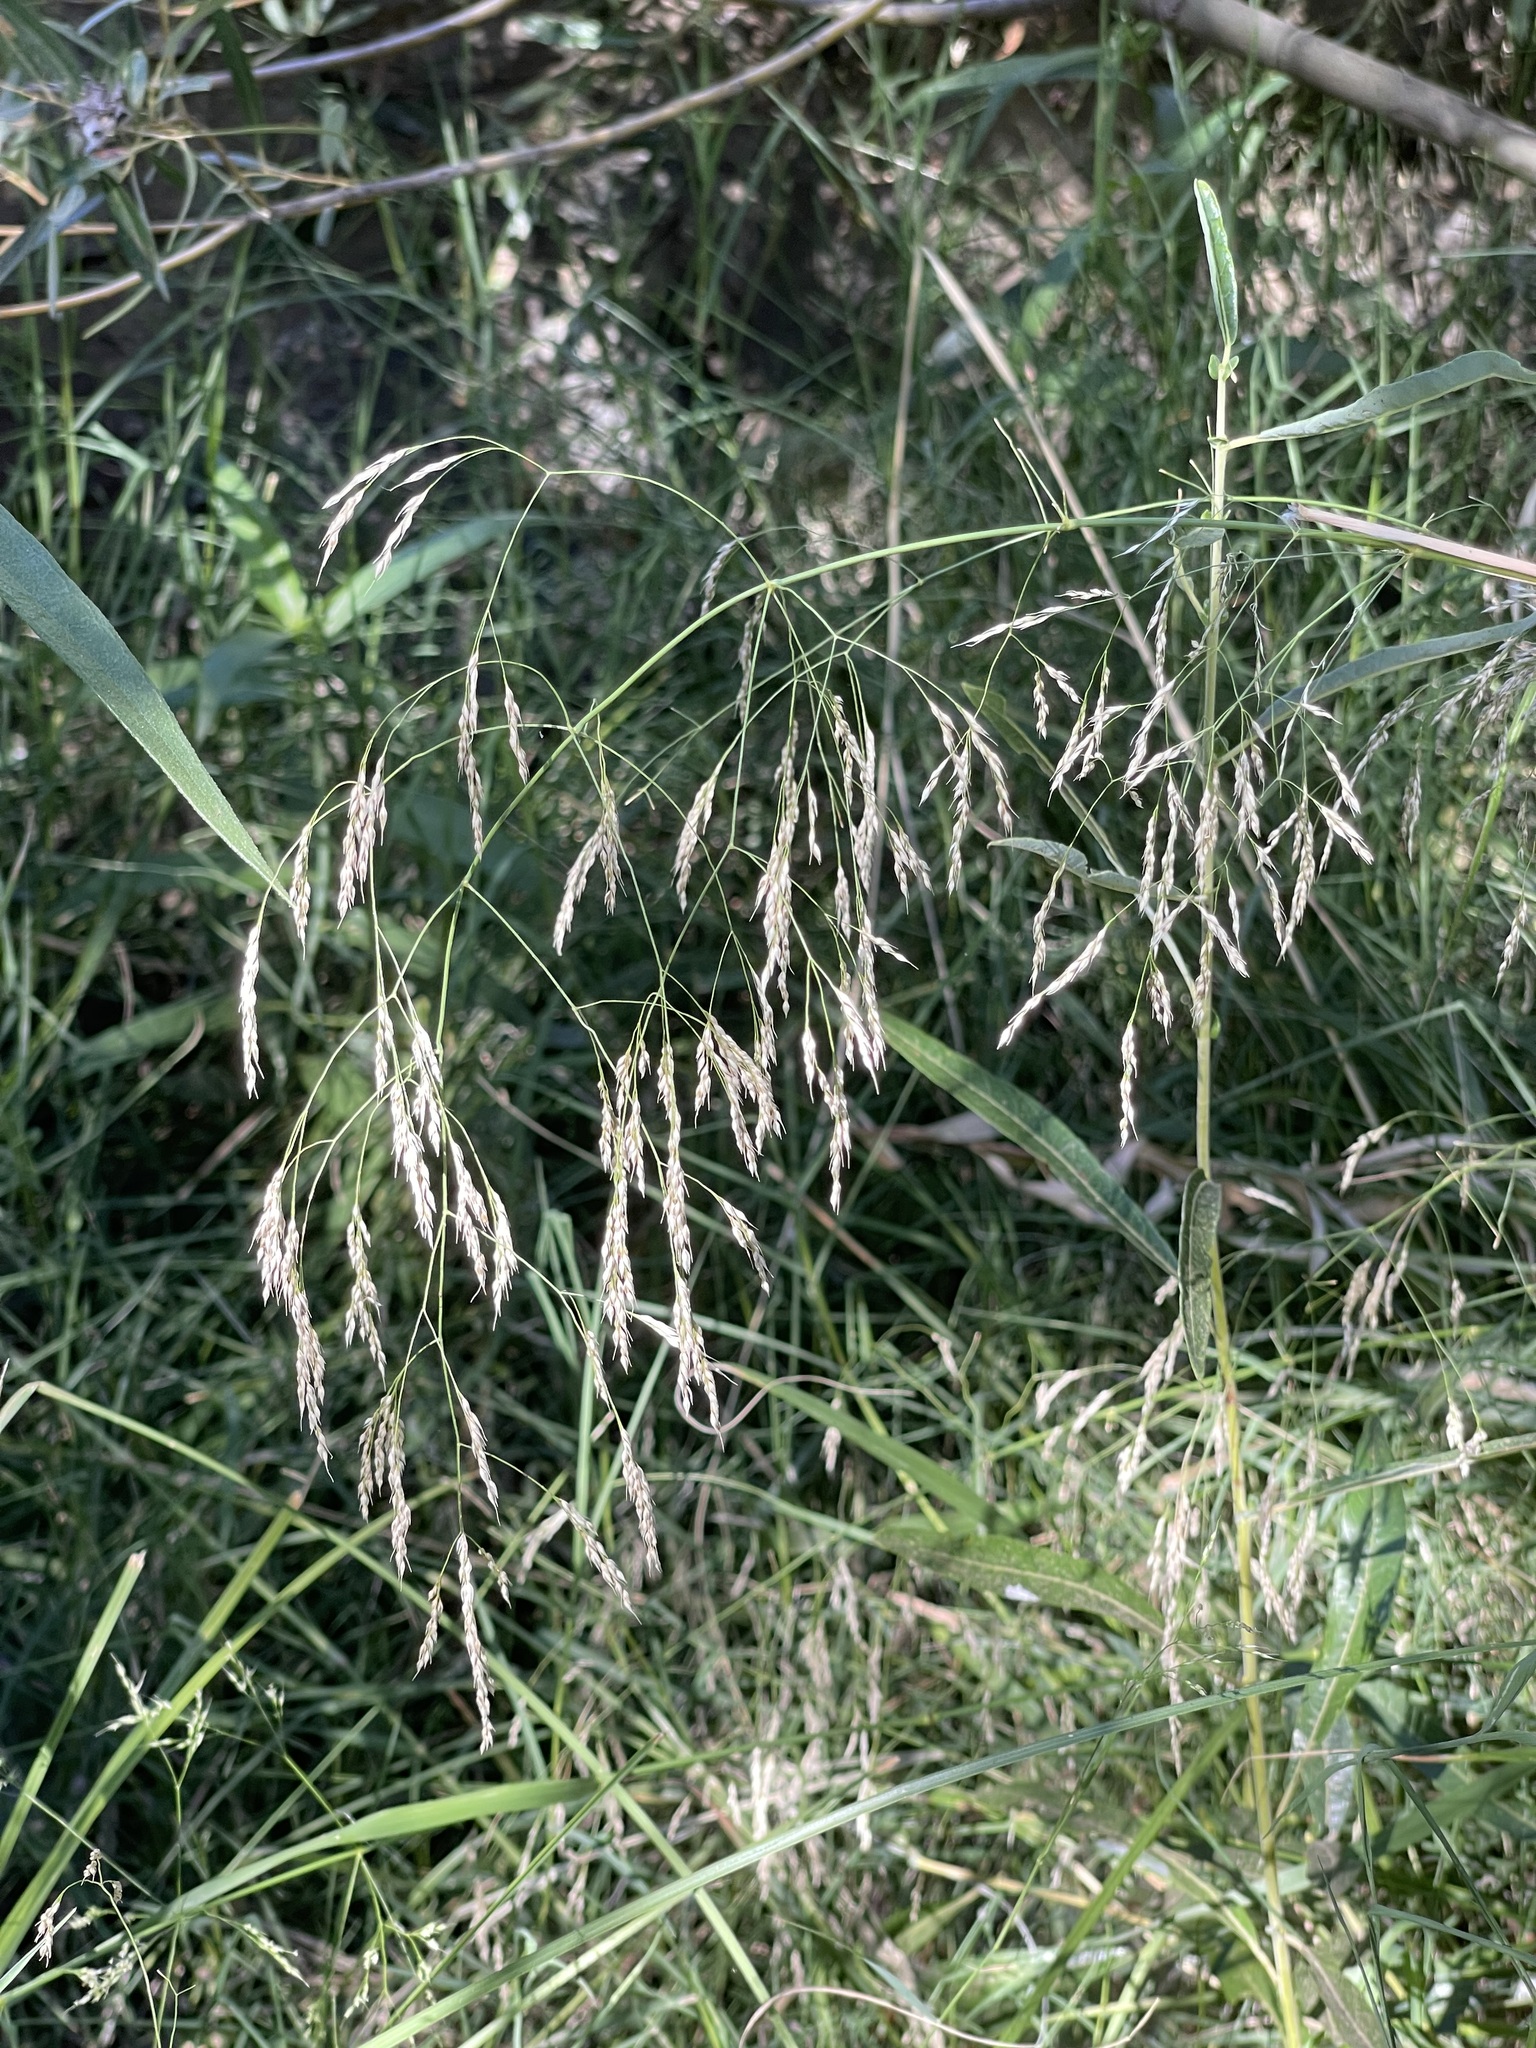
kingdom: Plantae
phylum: Tracheophyta
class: Liliopsida
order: Poales
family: Poaceae
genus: Oloptum
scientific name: Oloptum miliaceum
